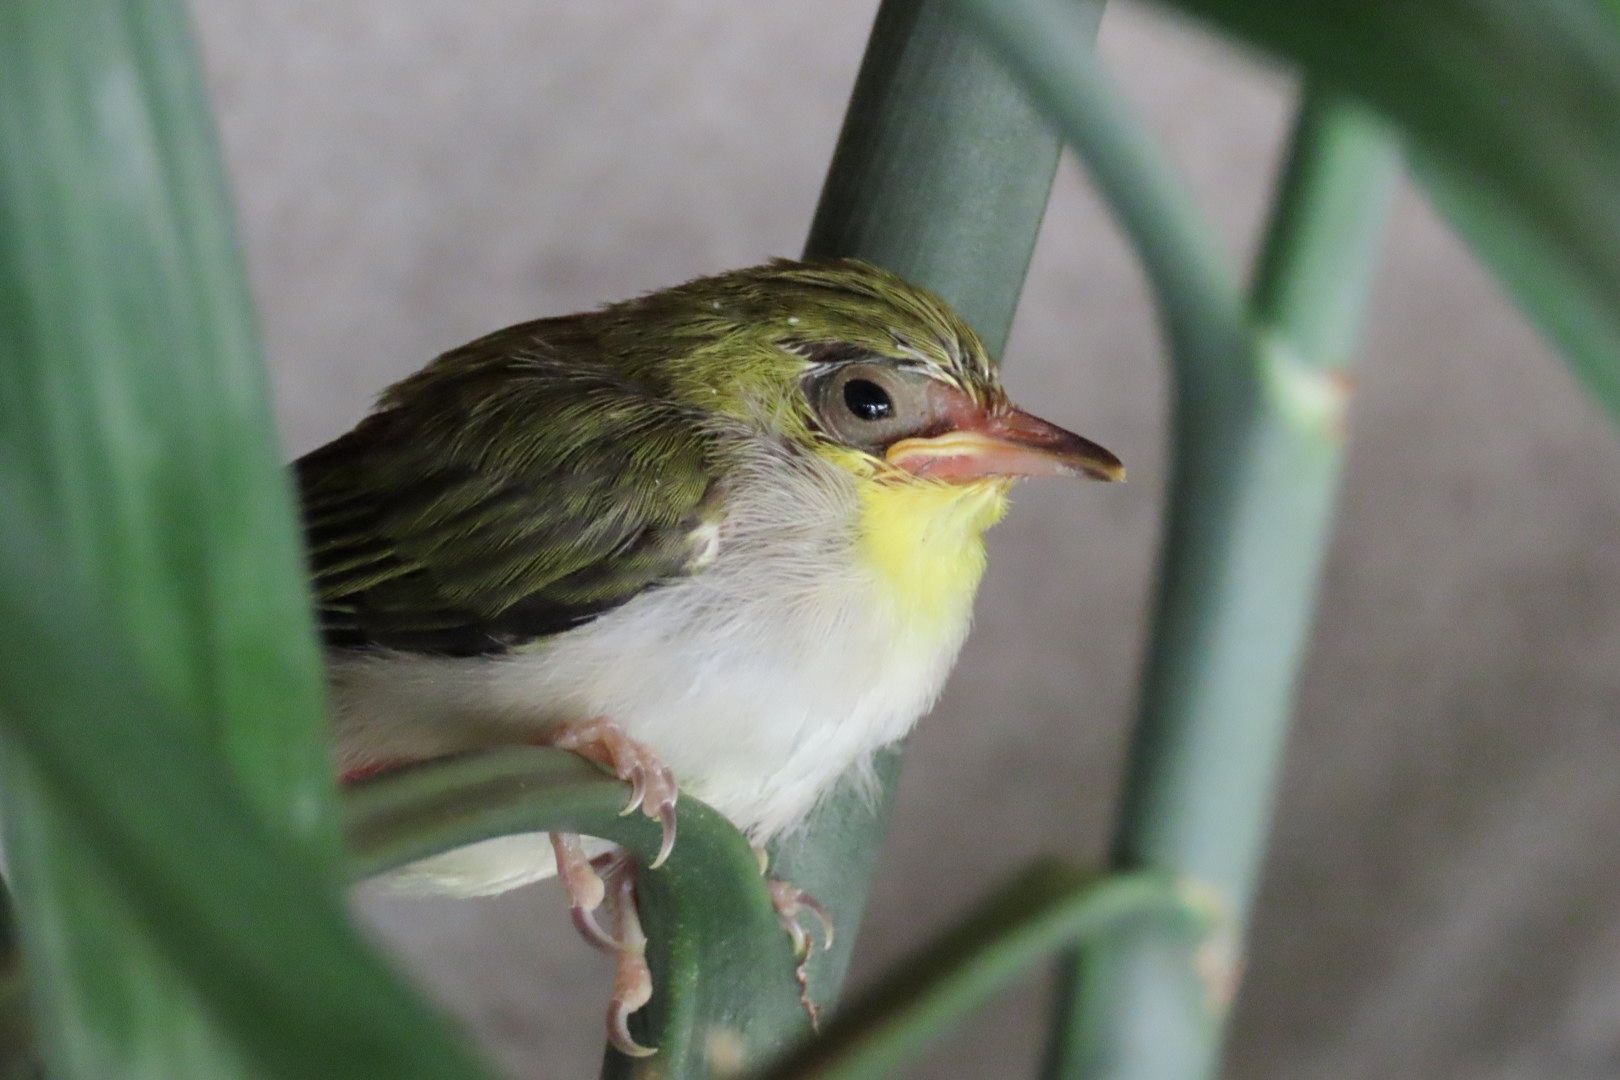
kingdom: Animalia
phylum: Chordata
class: Aves
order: Passeriformes
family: Zosteropidae
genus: Zosterops
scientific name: Zosterops simplex
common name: Swinhoe's white-eye
